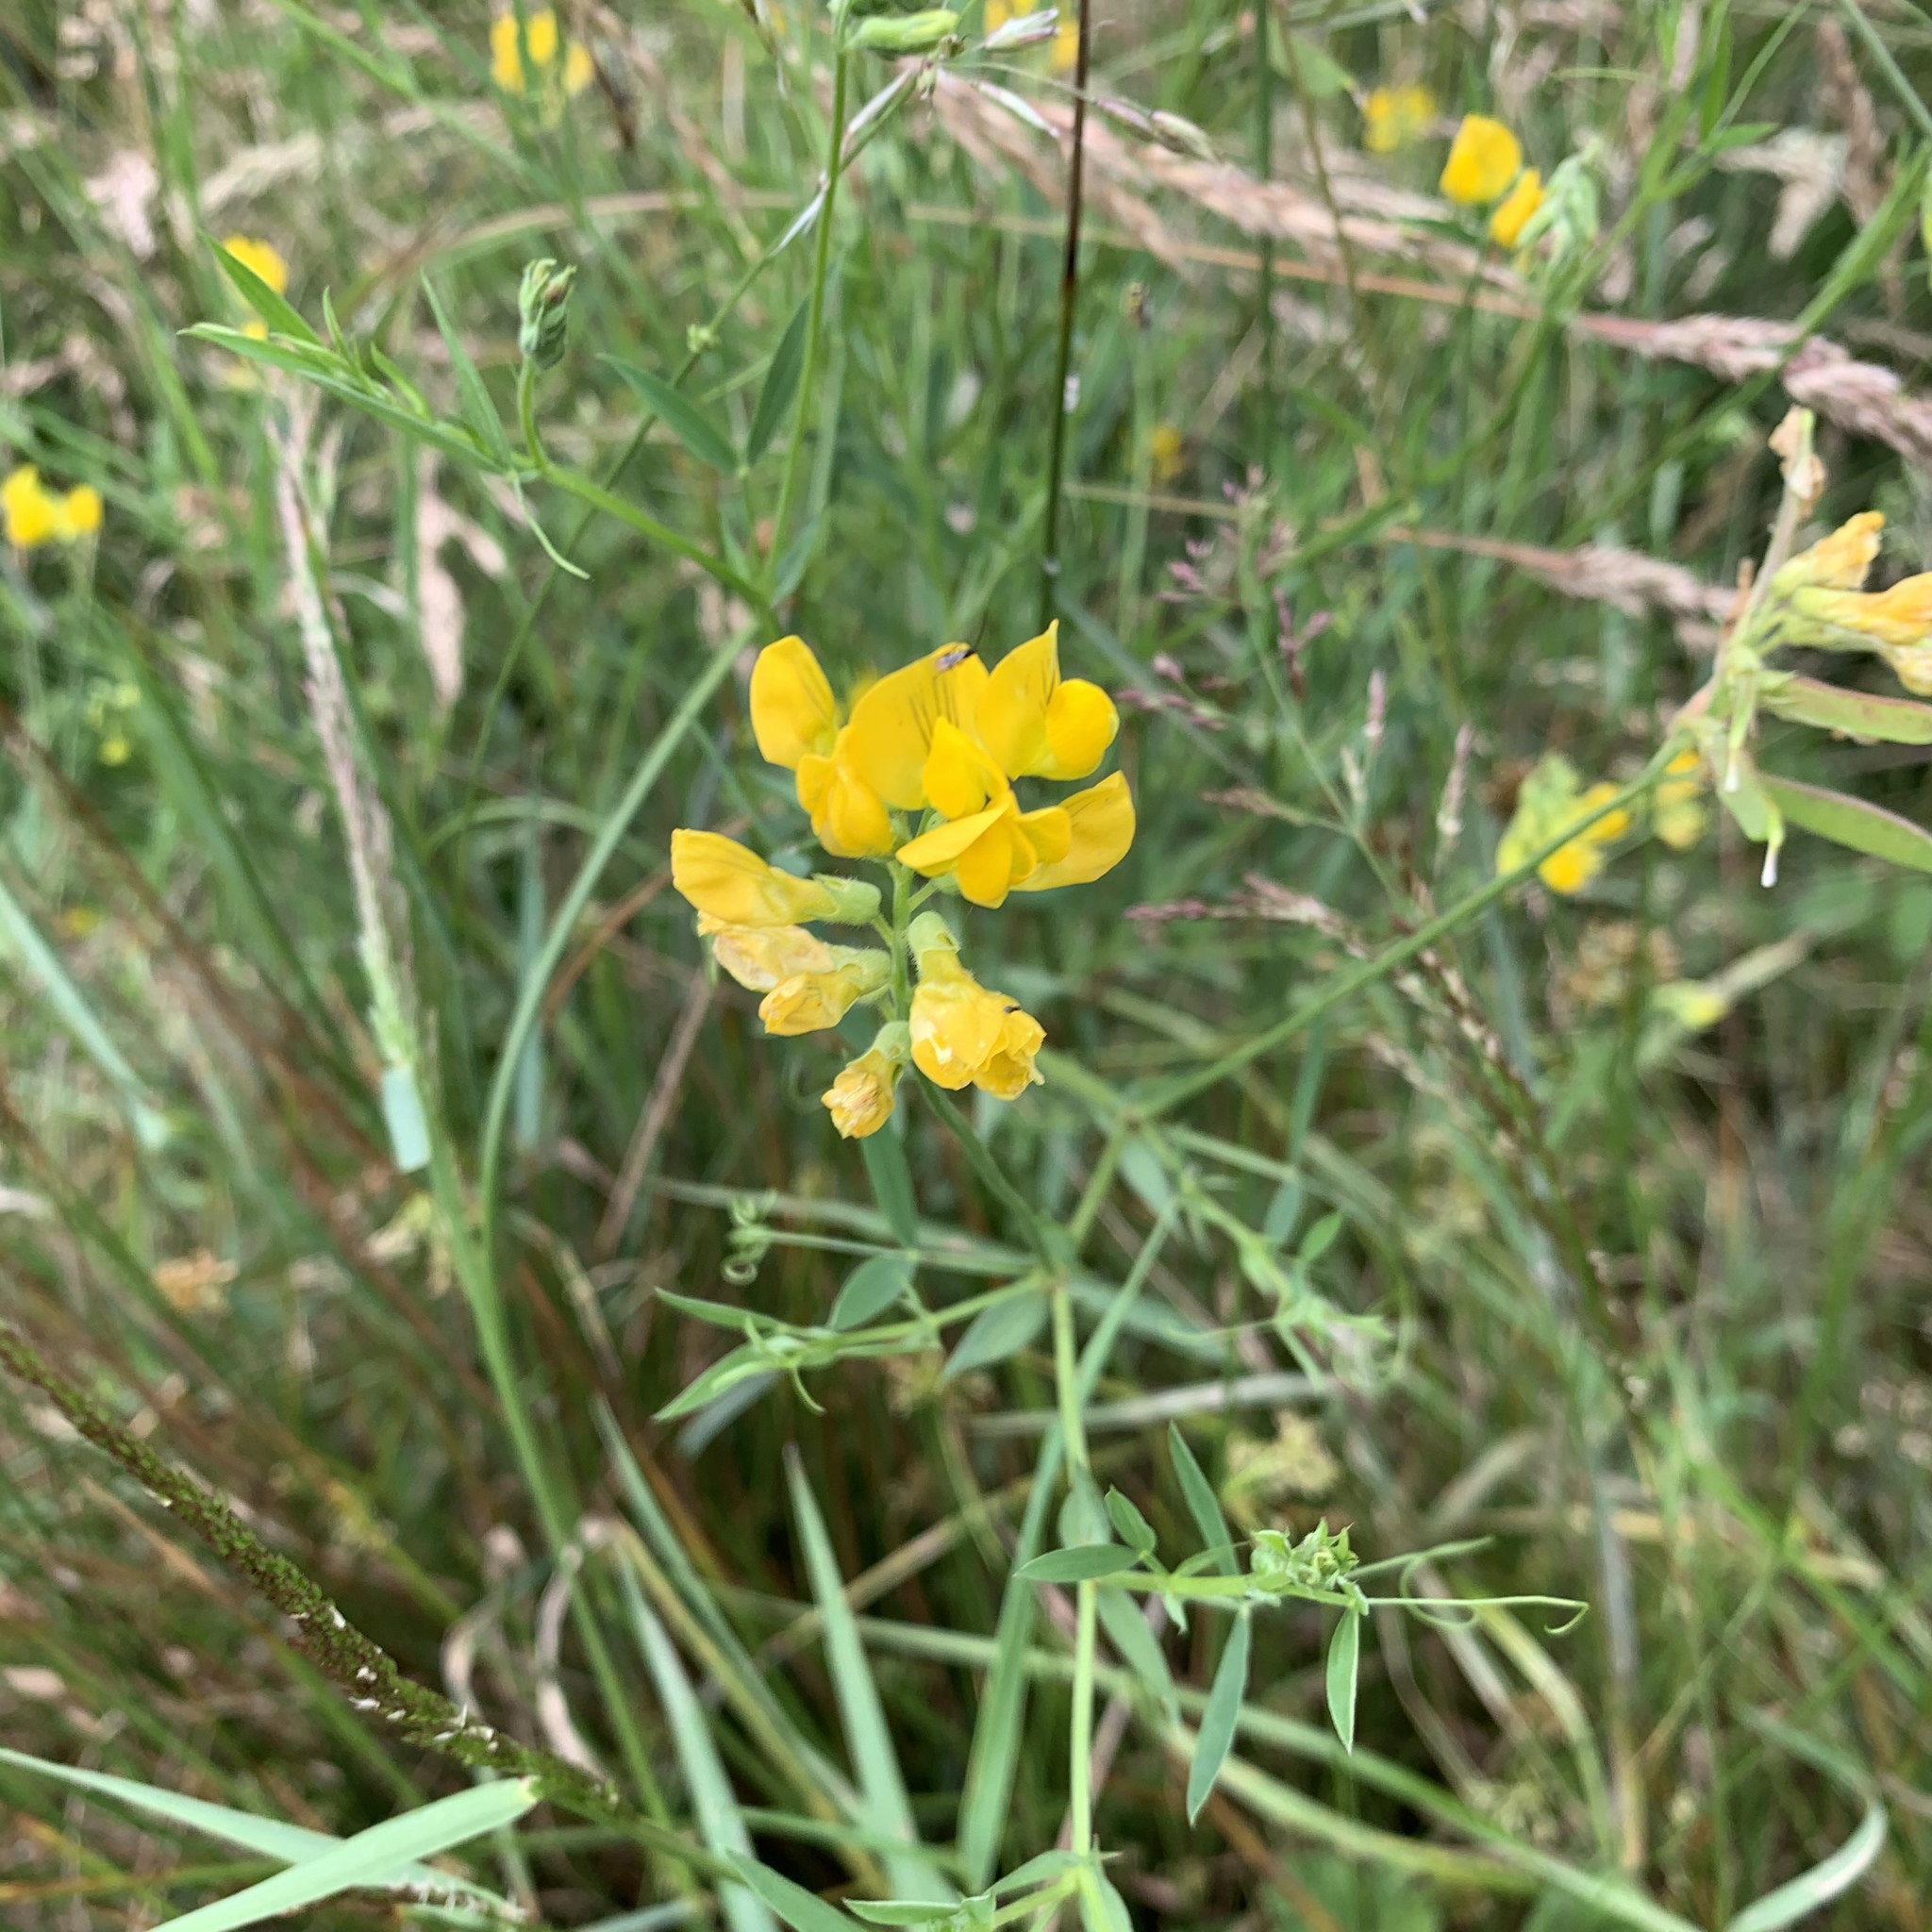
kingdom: Plantae
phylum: Tracheophyta
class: Magnoliopsida
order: Fabales
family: Fabaceae
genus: Lathyrus
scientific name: Lathyrus pratensis
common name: Meadow vetchling
